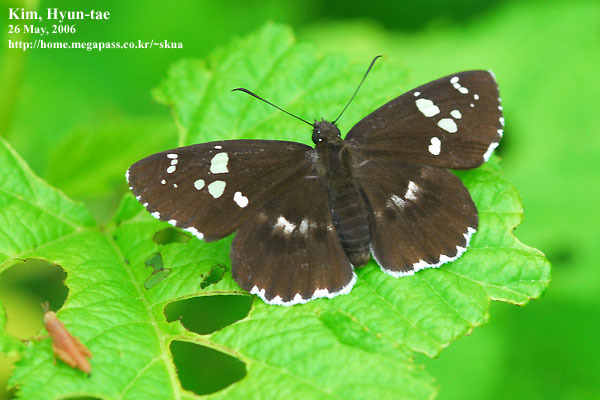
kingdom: Animalia
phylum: Arthropoda
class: Insecta
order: Lepidoptera
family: Hesperiidae
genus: Daimio
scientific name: Daimio tethys
